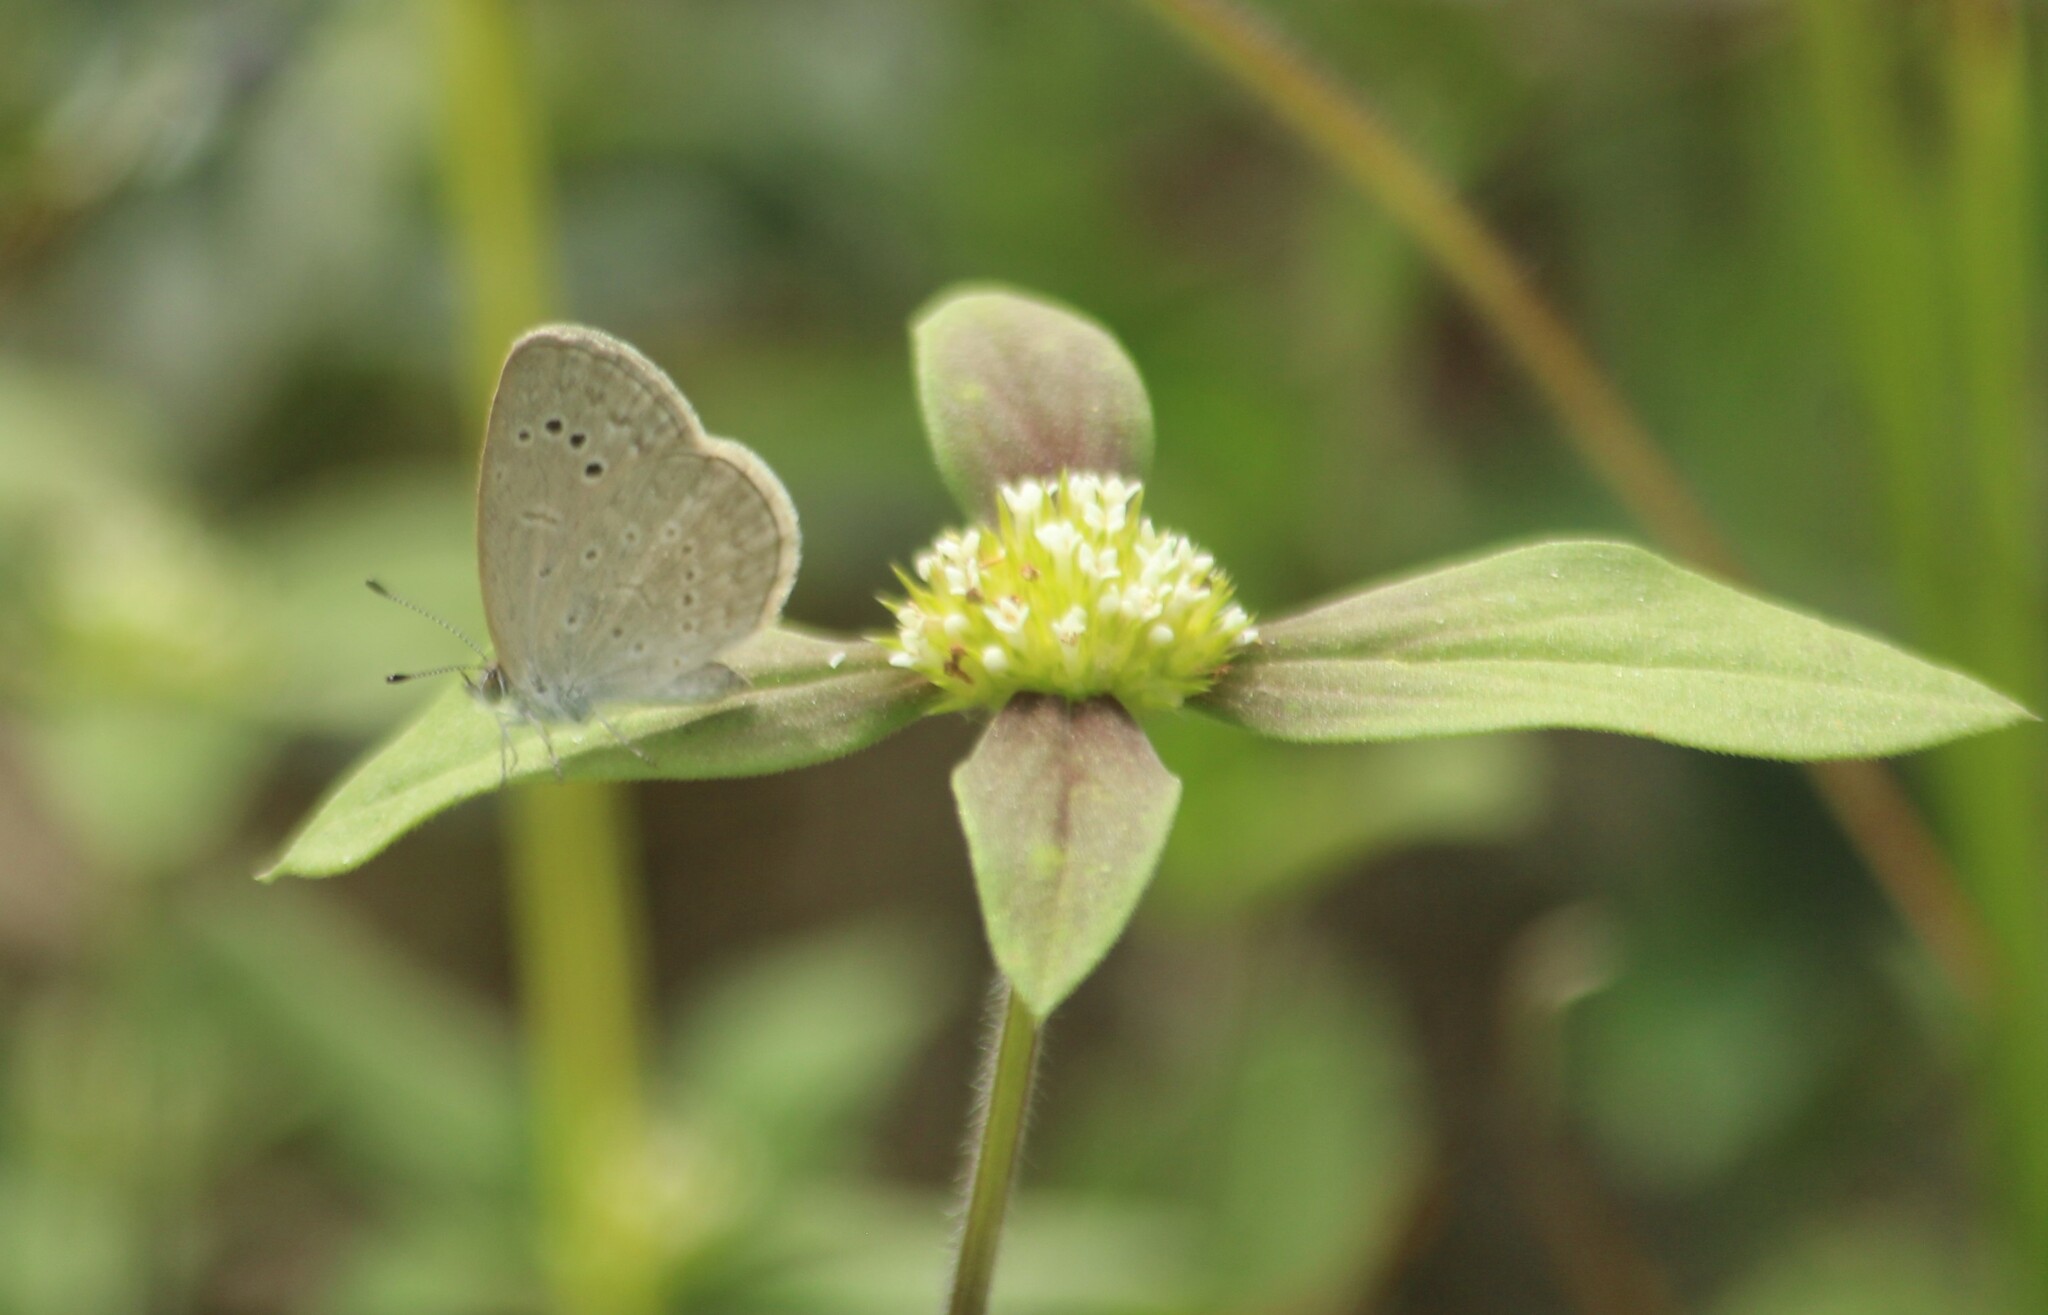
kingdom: Animalia
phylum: Arthropoda
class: Insecta
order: Lepidoptera
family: Lycaenidae
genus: Pseudozizeeria
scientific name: Pseudozizeeria maha
